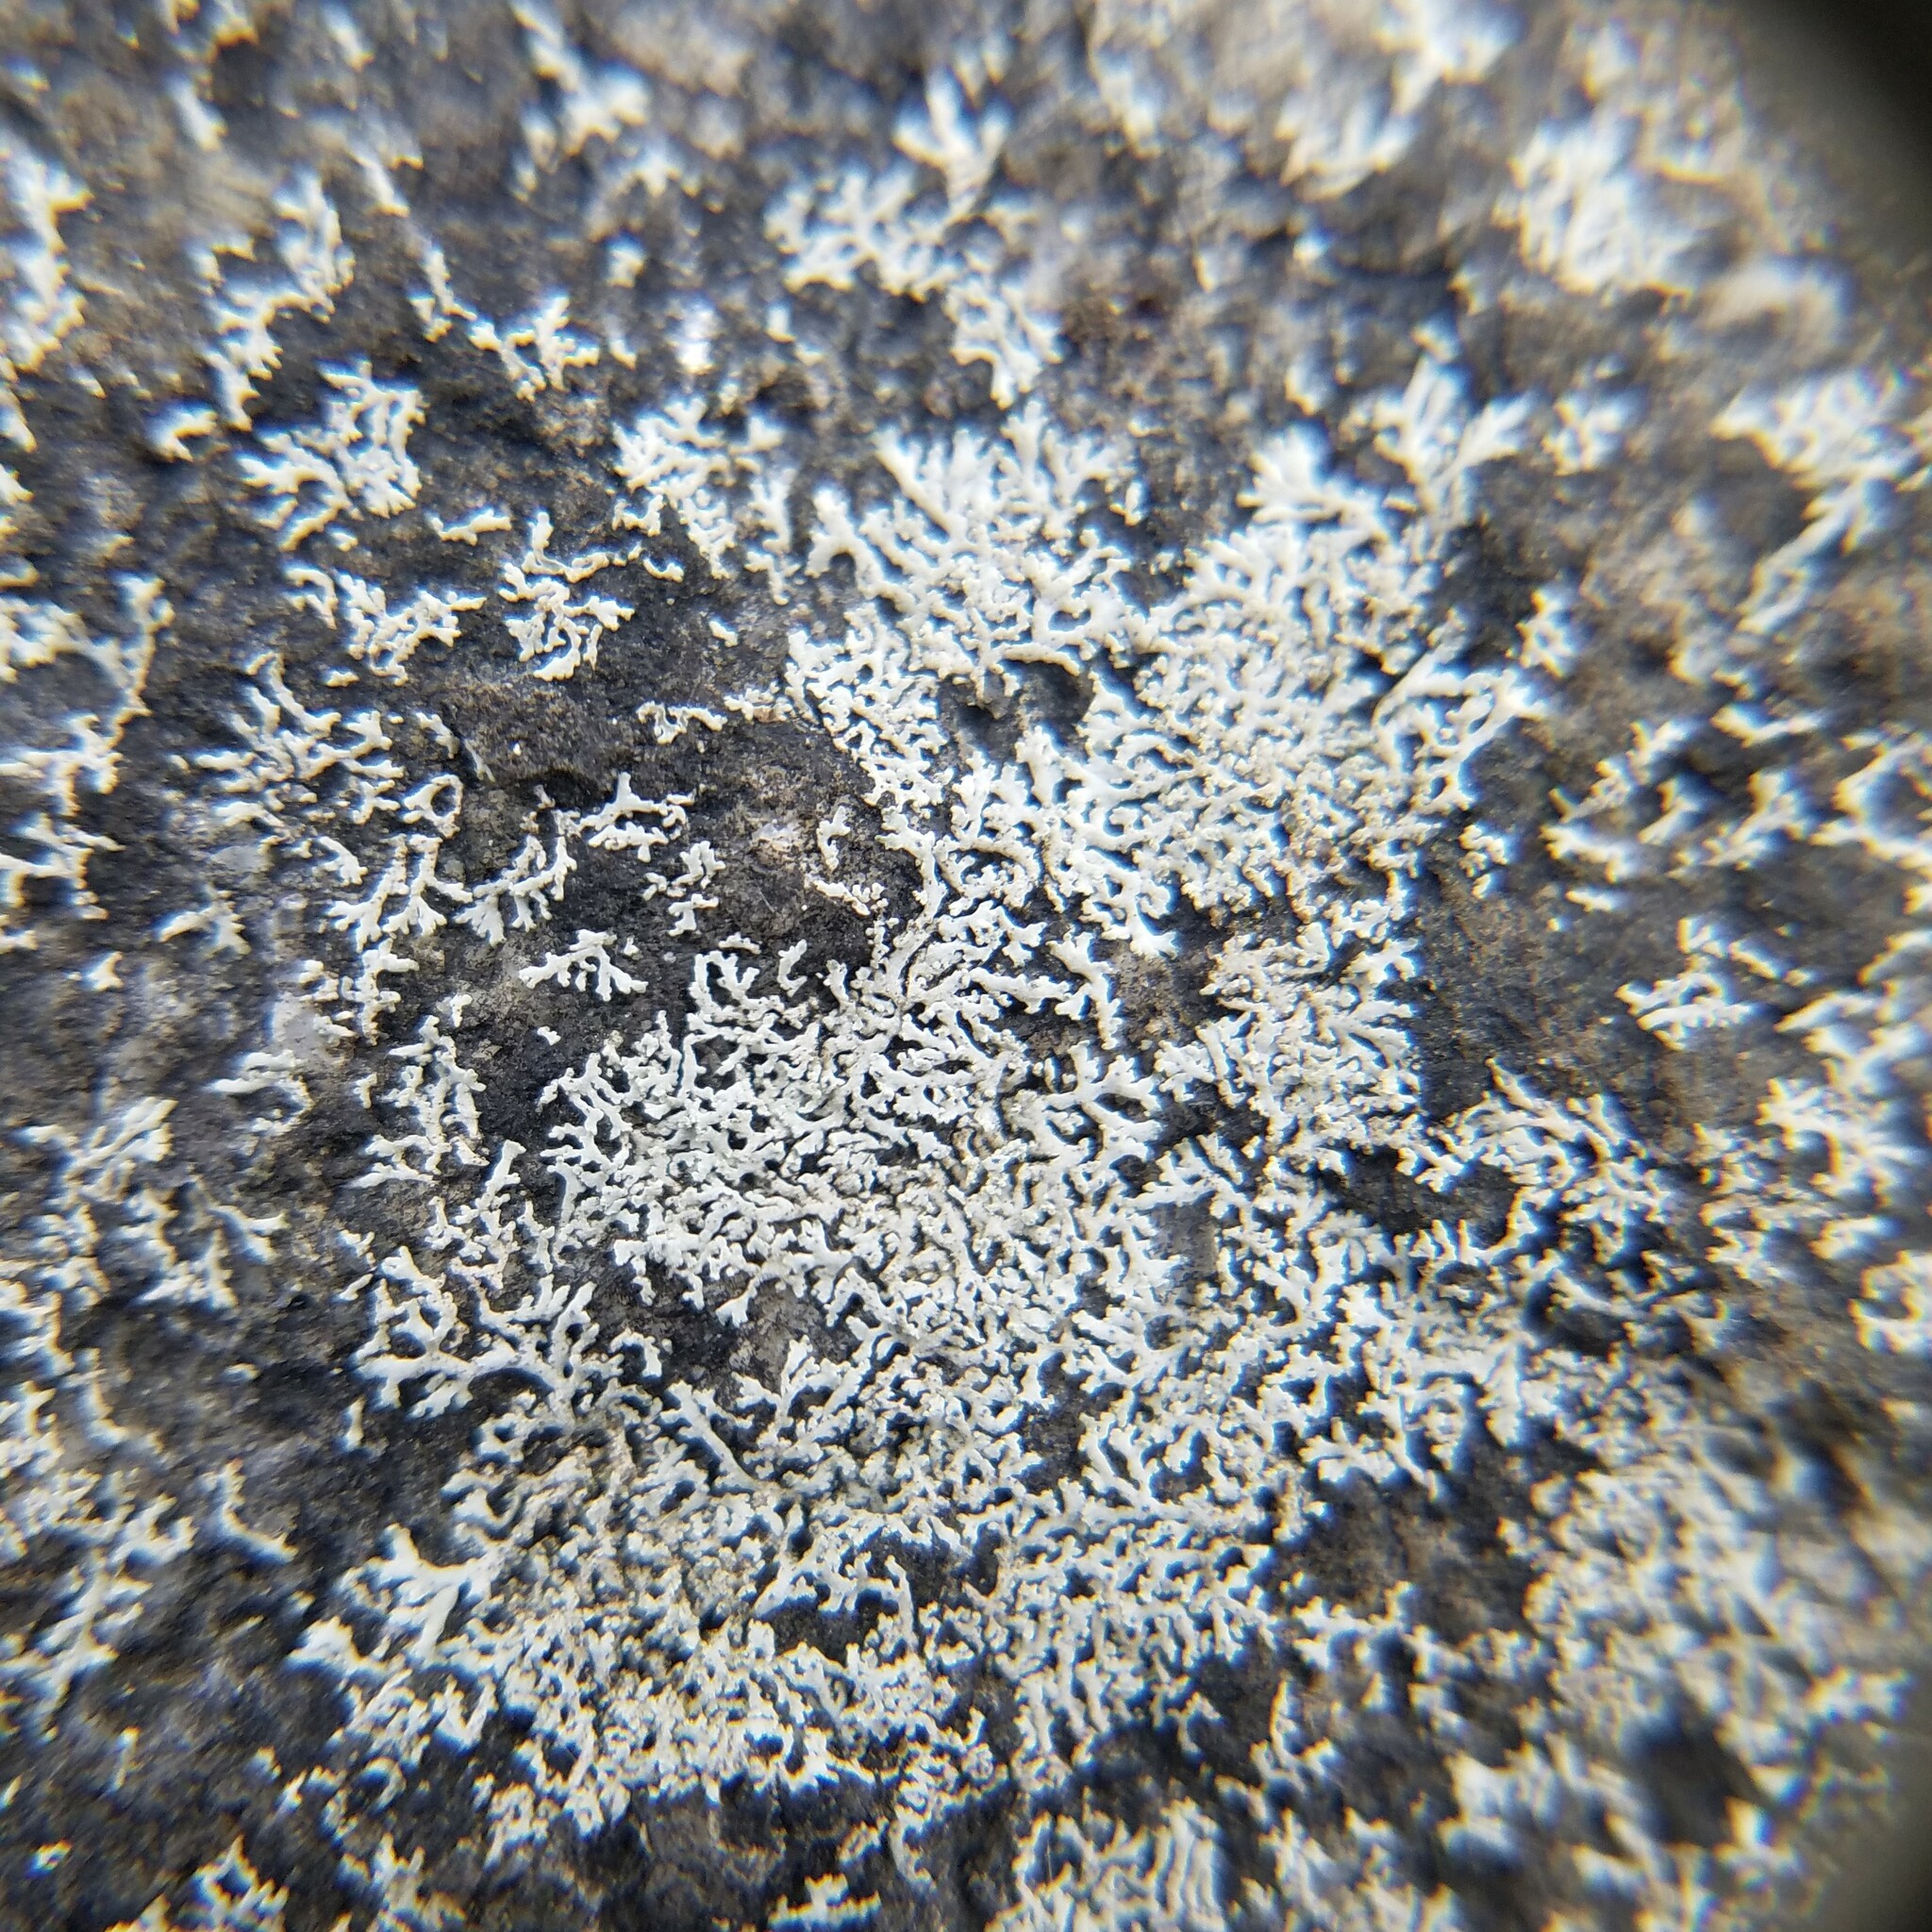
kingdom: Fungi
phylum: Ascomycota
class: Lecanoromycetes
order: Caliciales
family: Physciaceae
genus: Physcia
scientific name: Physcia subtilis
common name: Slender rosette lichen
